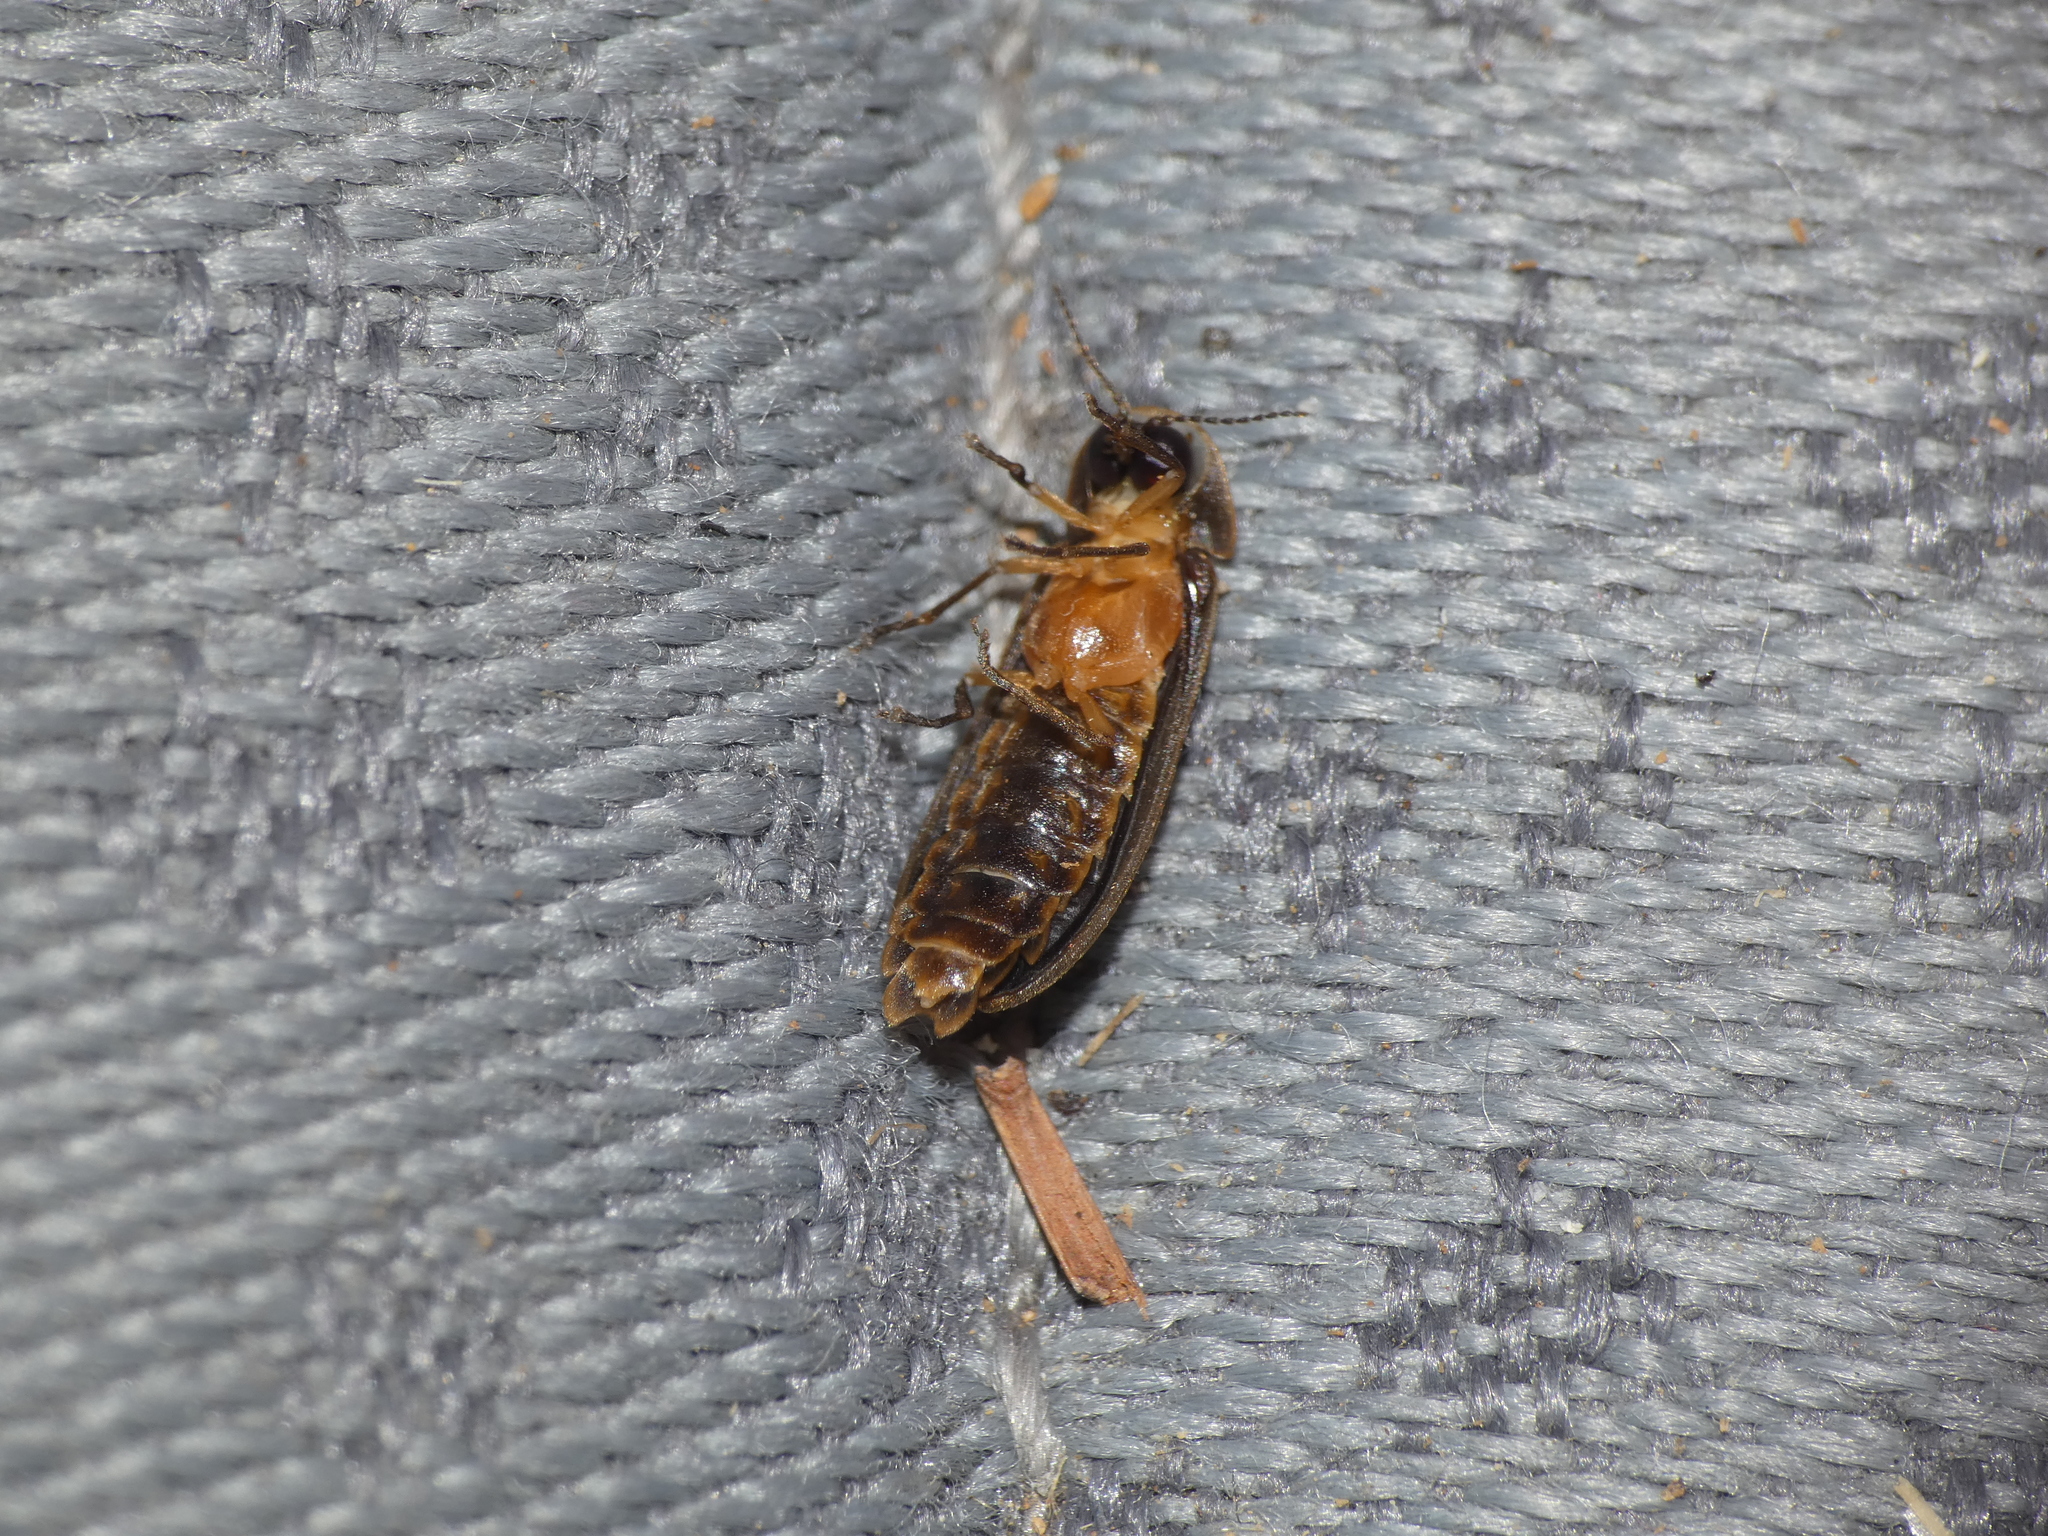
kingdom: Animalia
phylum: Arthropoda
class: Insecta
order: Coleoptera
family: Lampyridae
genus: Lamprohiza
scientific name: Lamprohiza mulsantii
